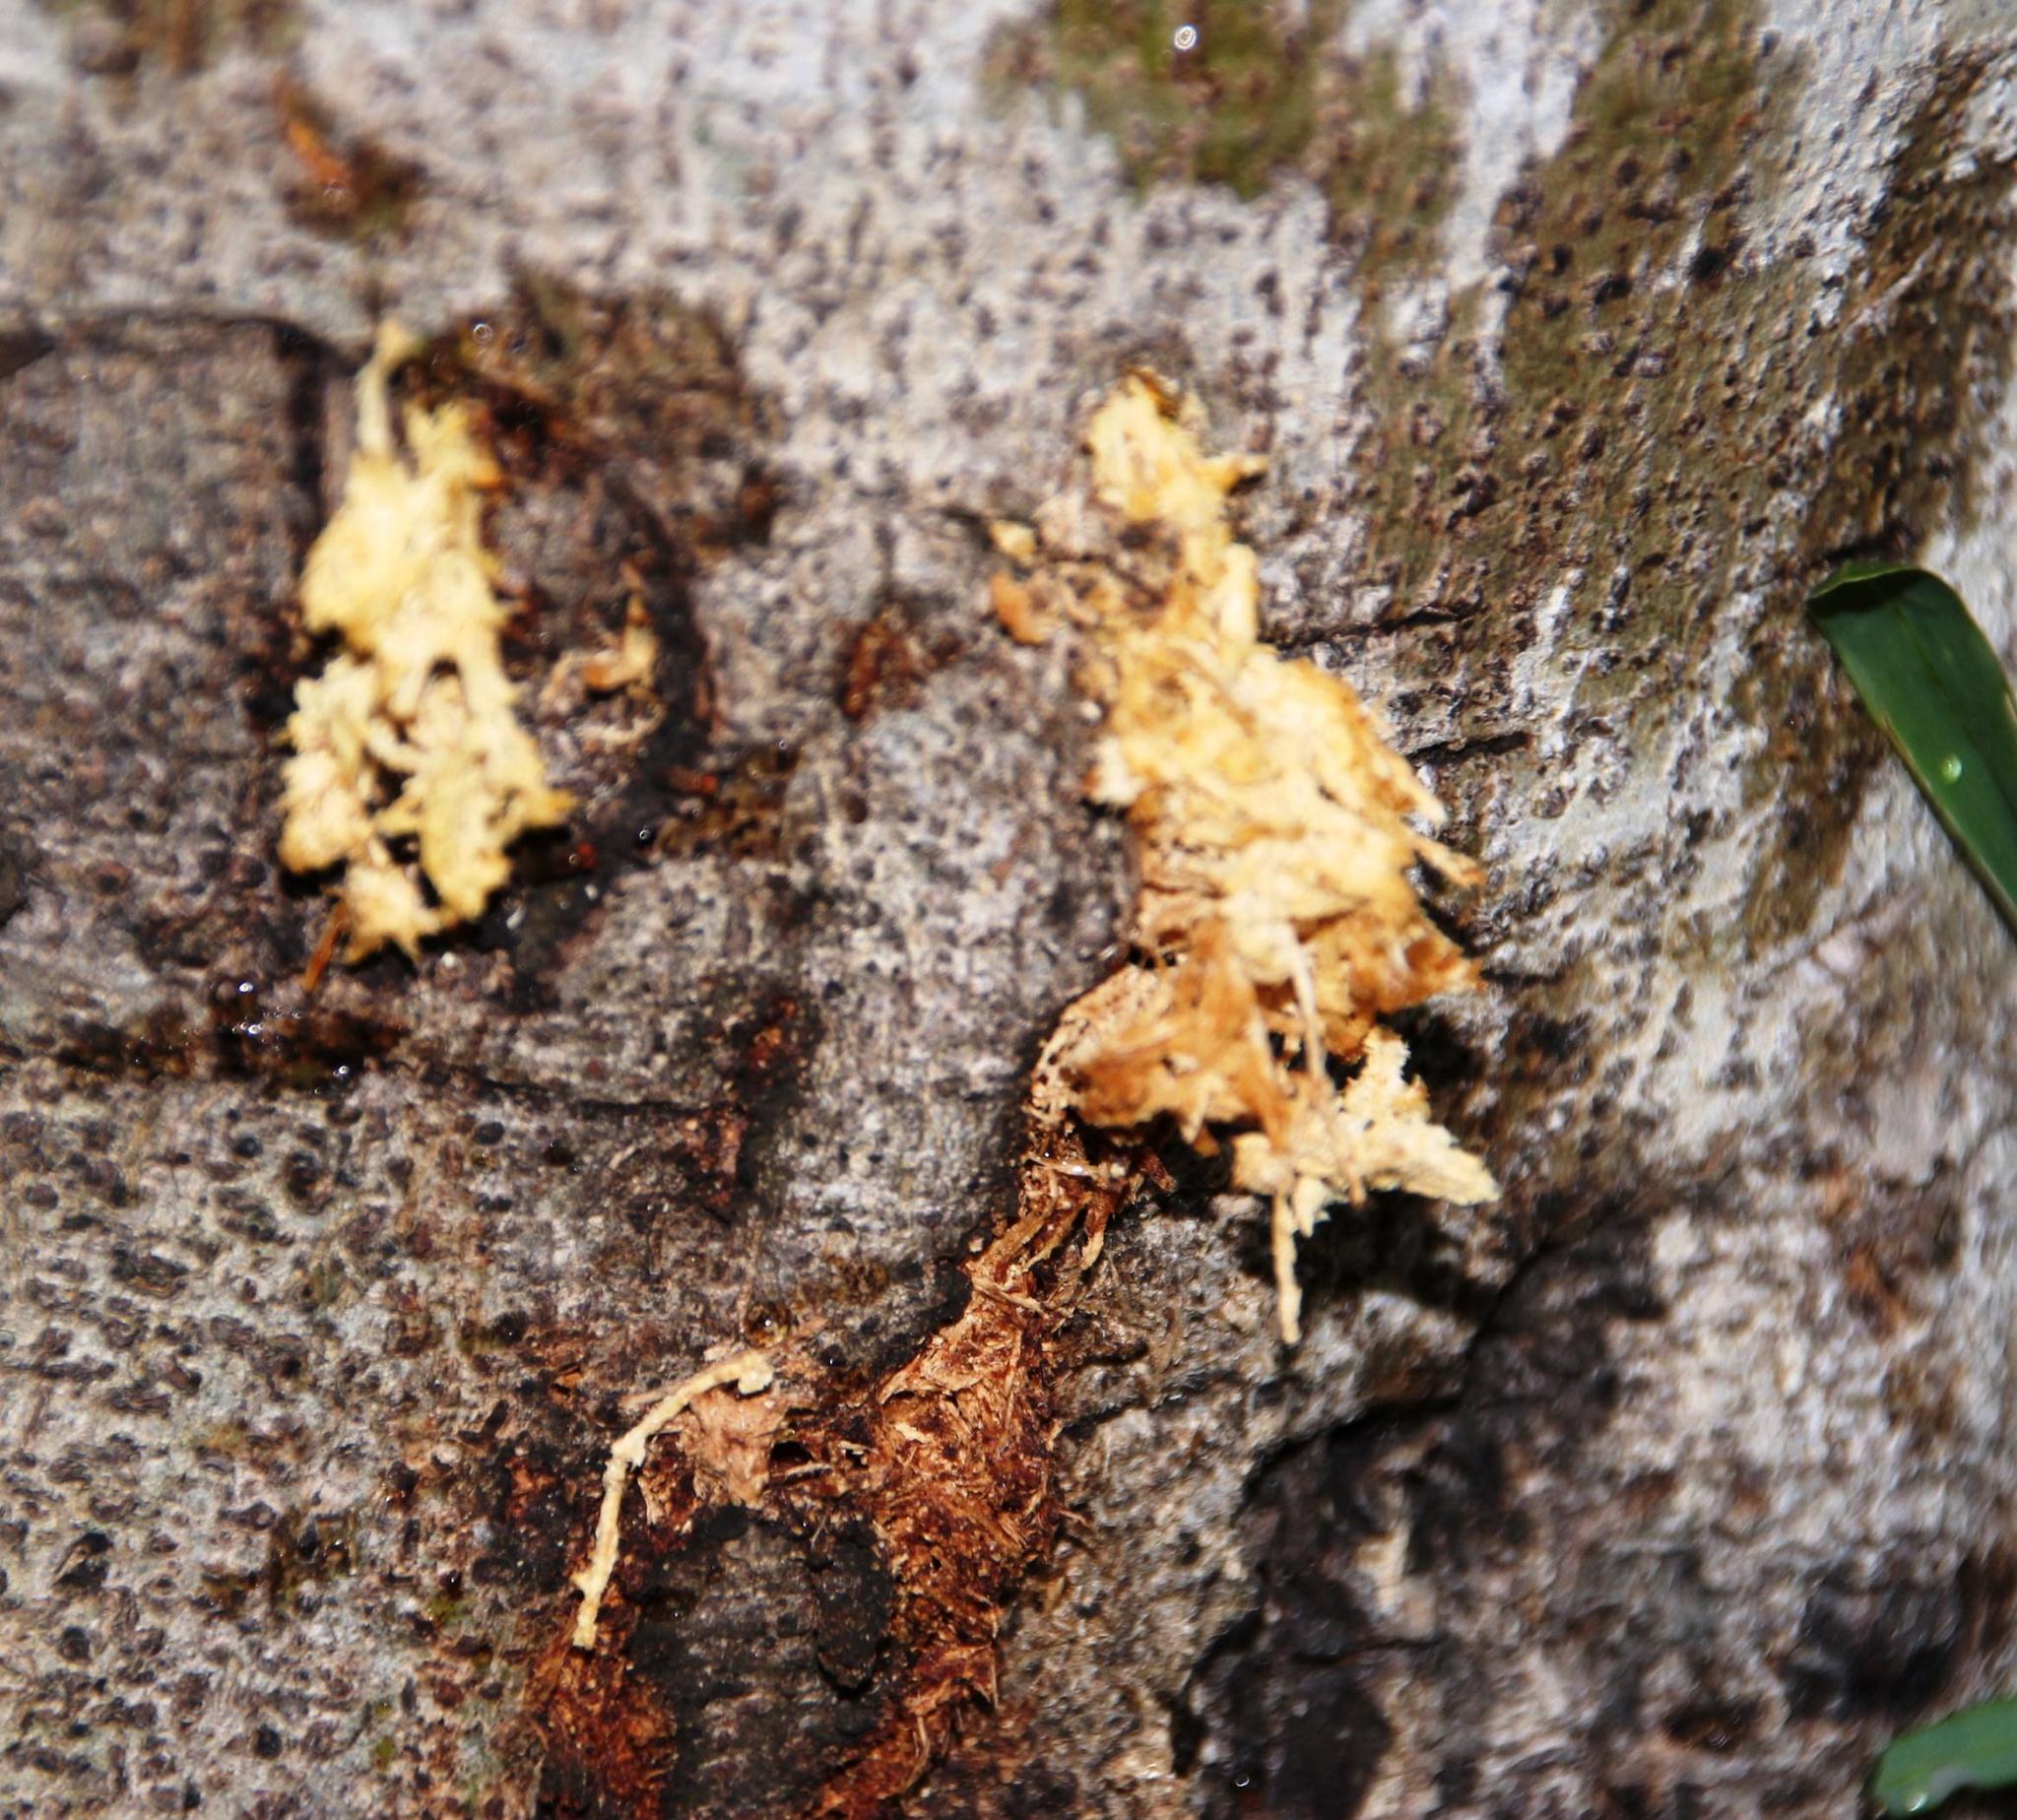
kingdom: Animalia
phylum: Arthropoda
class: Insecta
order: Coleoptera
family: Cerambycidae
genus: Phryneta
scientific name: Phryneta spinator
